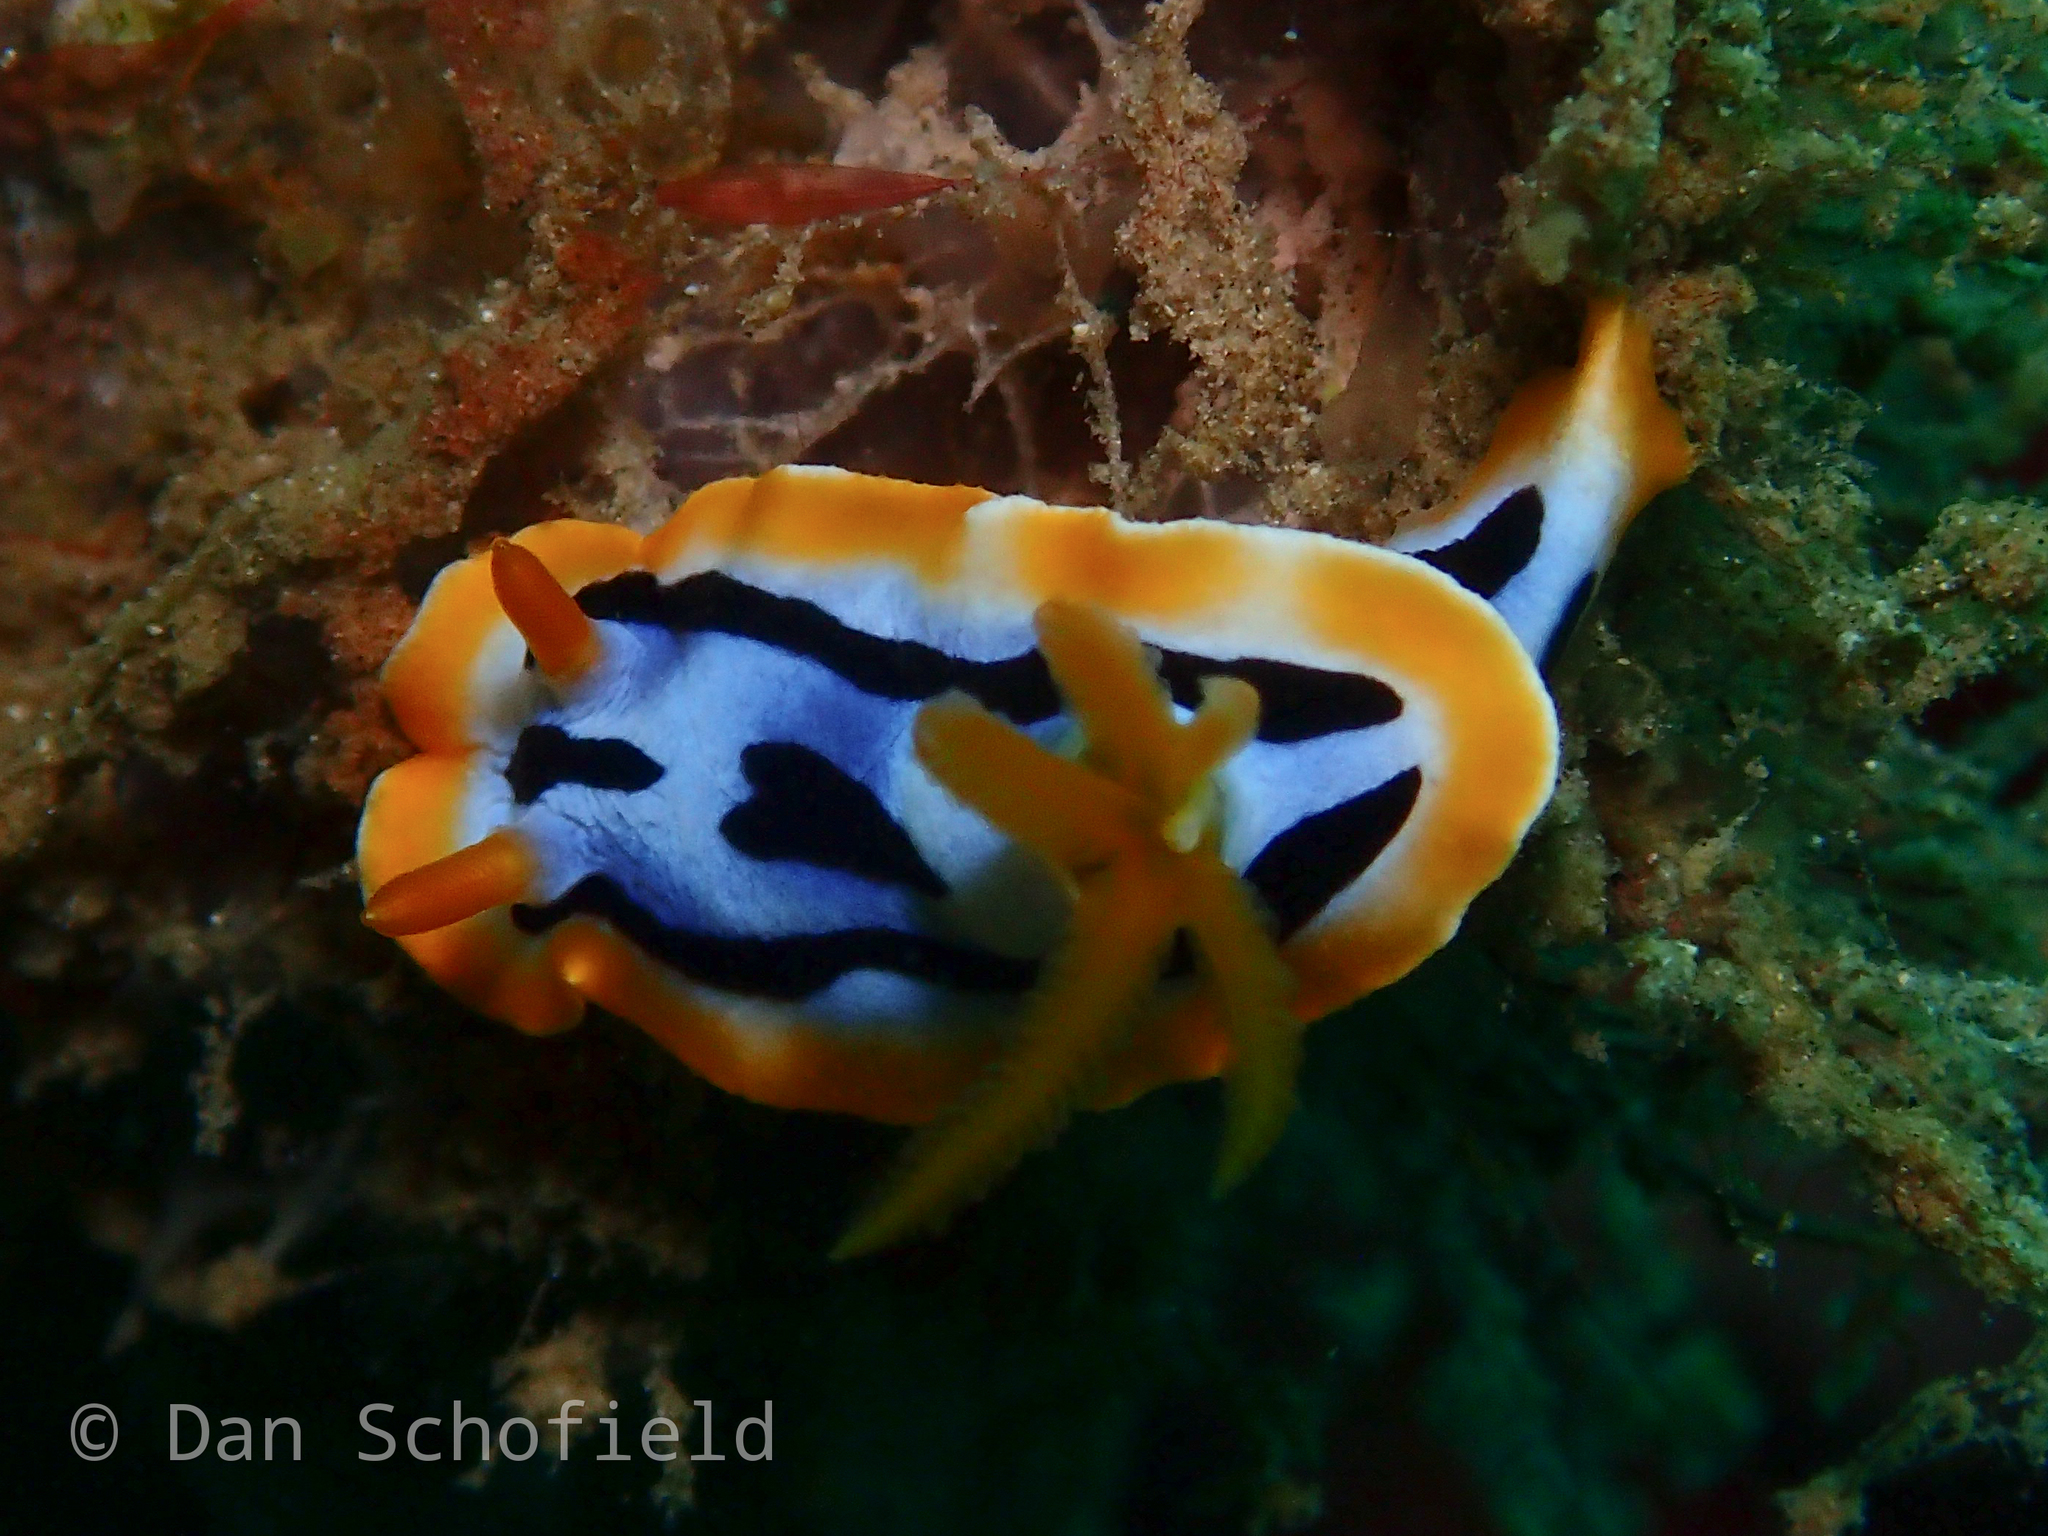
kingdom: Animalia
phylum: Mollusca
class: Gastropoda
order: Nudibranchia
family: Chromodorididae
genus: Chromodoris
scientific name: Chromodoris strigata
